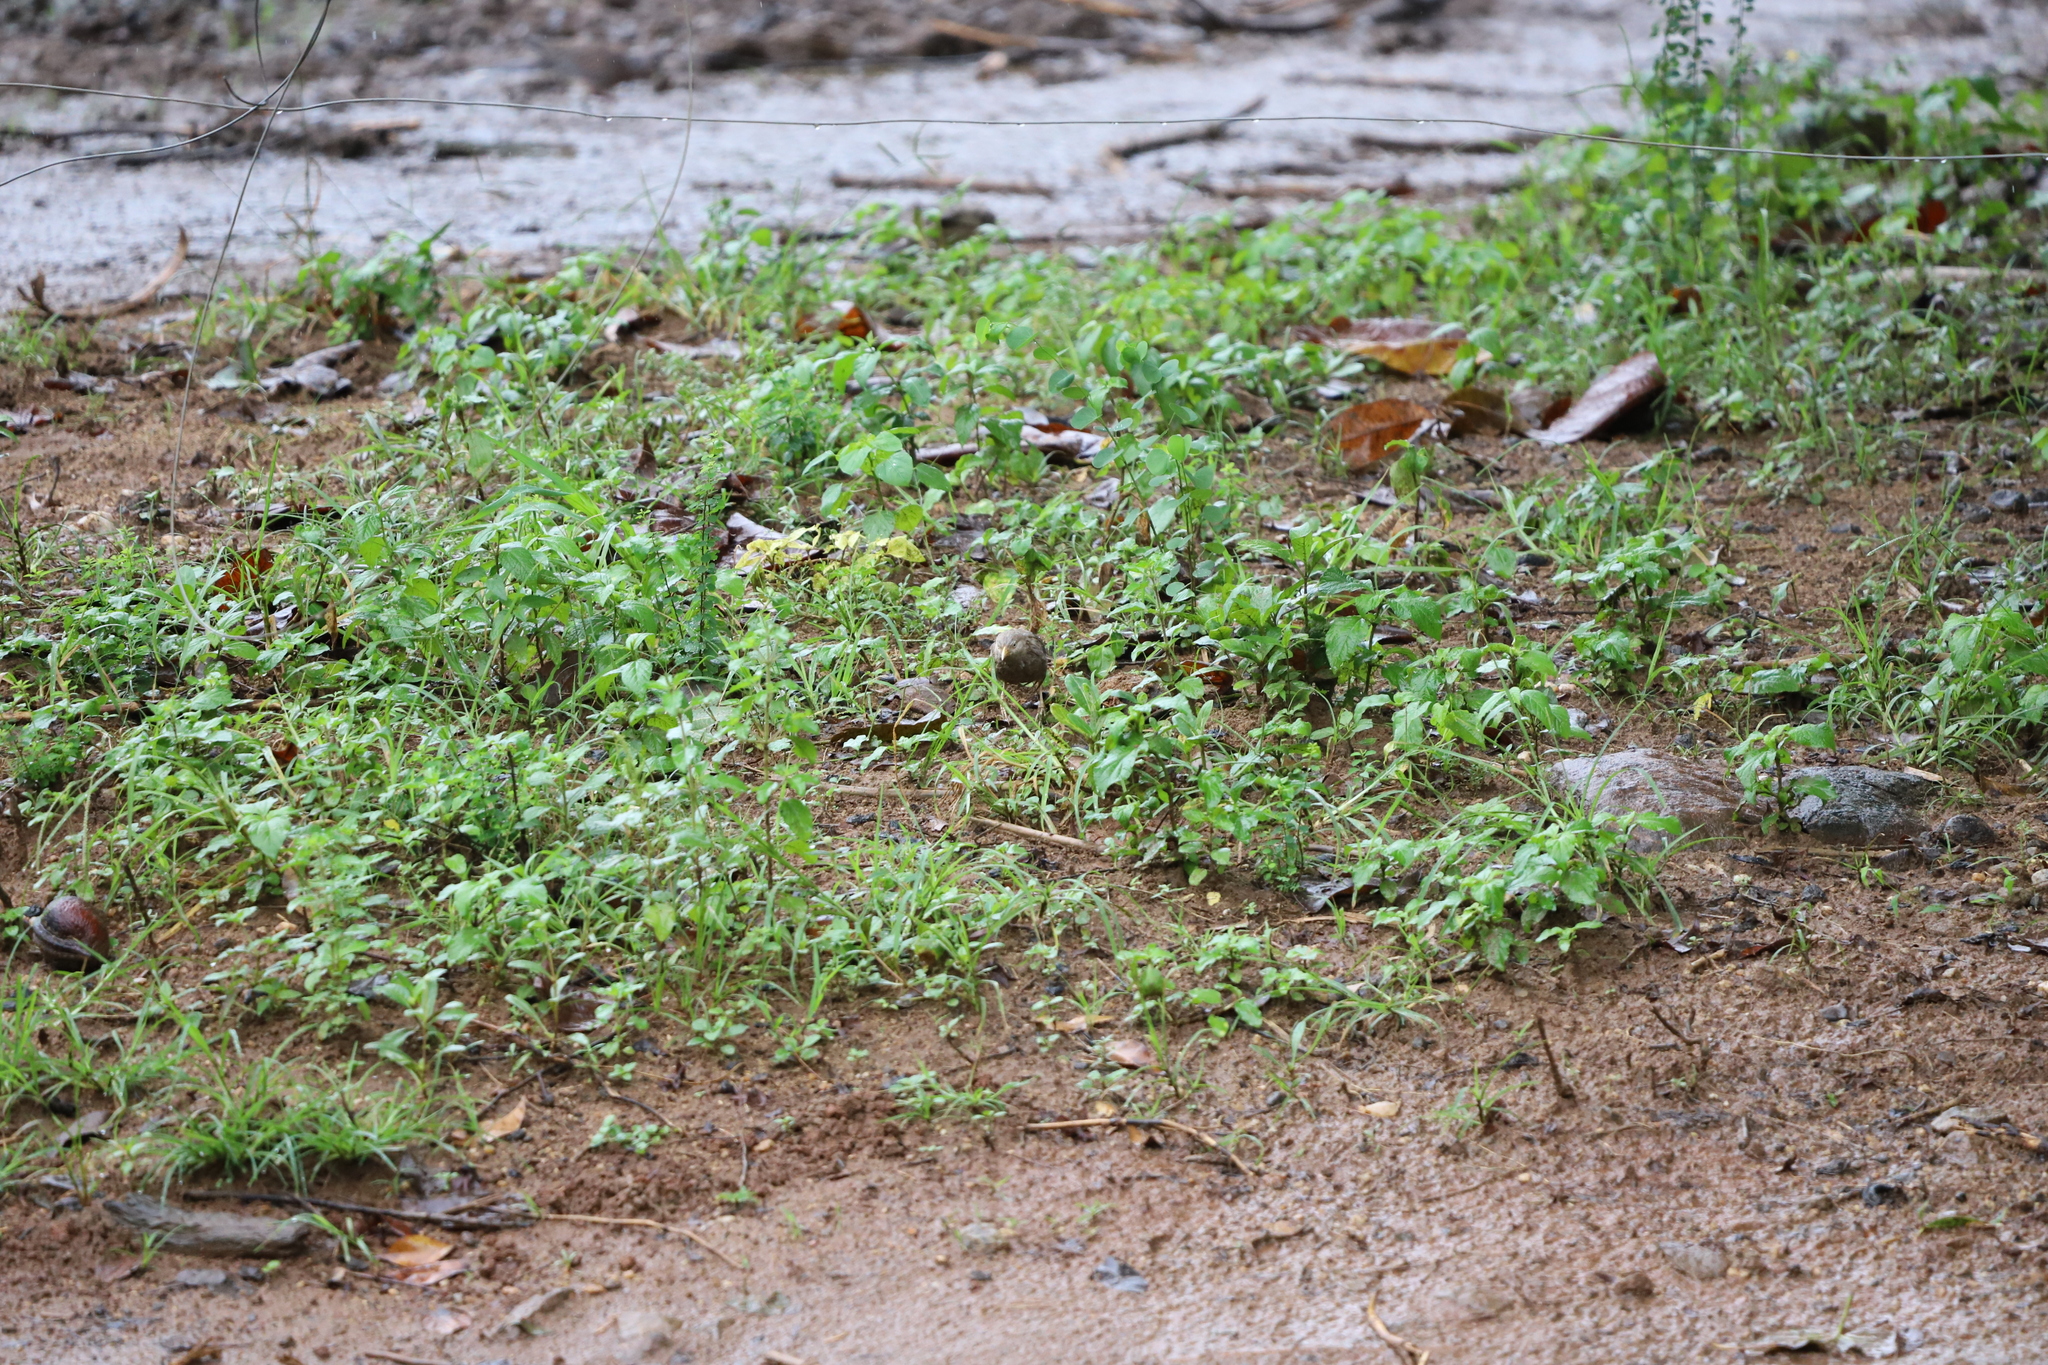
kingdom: Animalia
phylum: Chordata
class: Aves
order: Passeriformes
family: Leiothrichidae
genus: Turdoides
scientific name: Turdoides affinis
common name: Yellow-billed babbler
